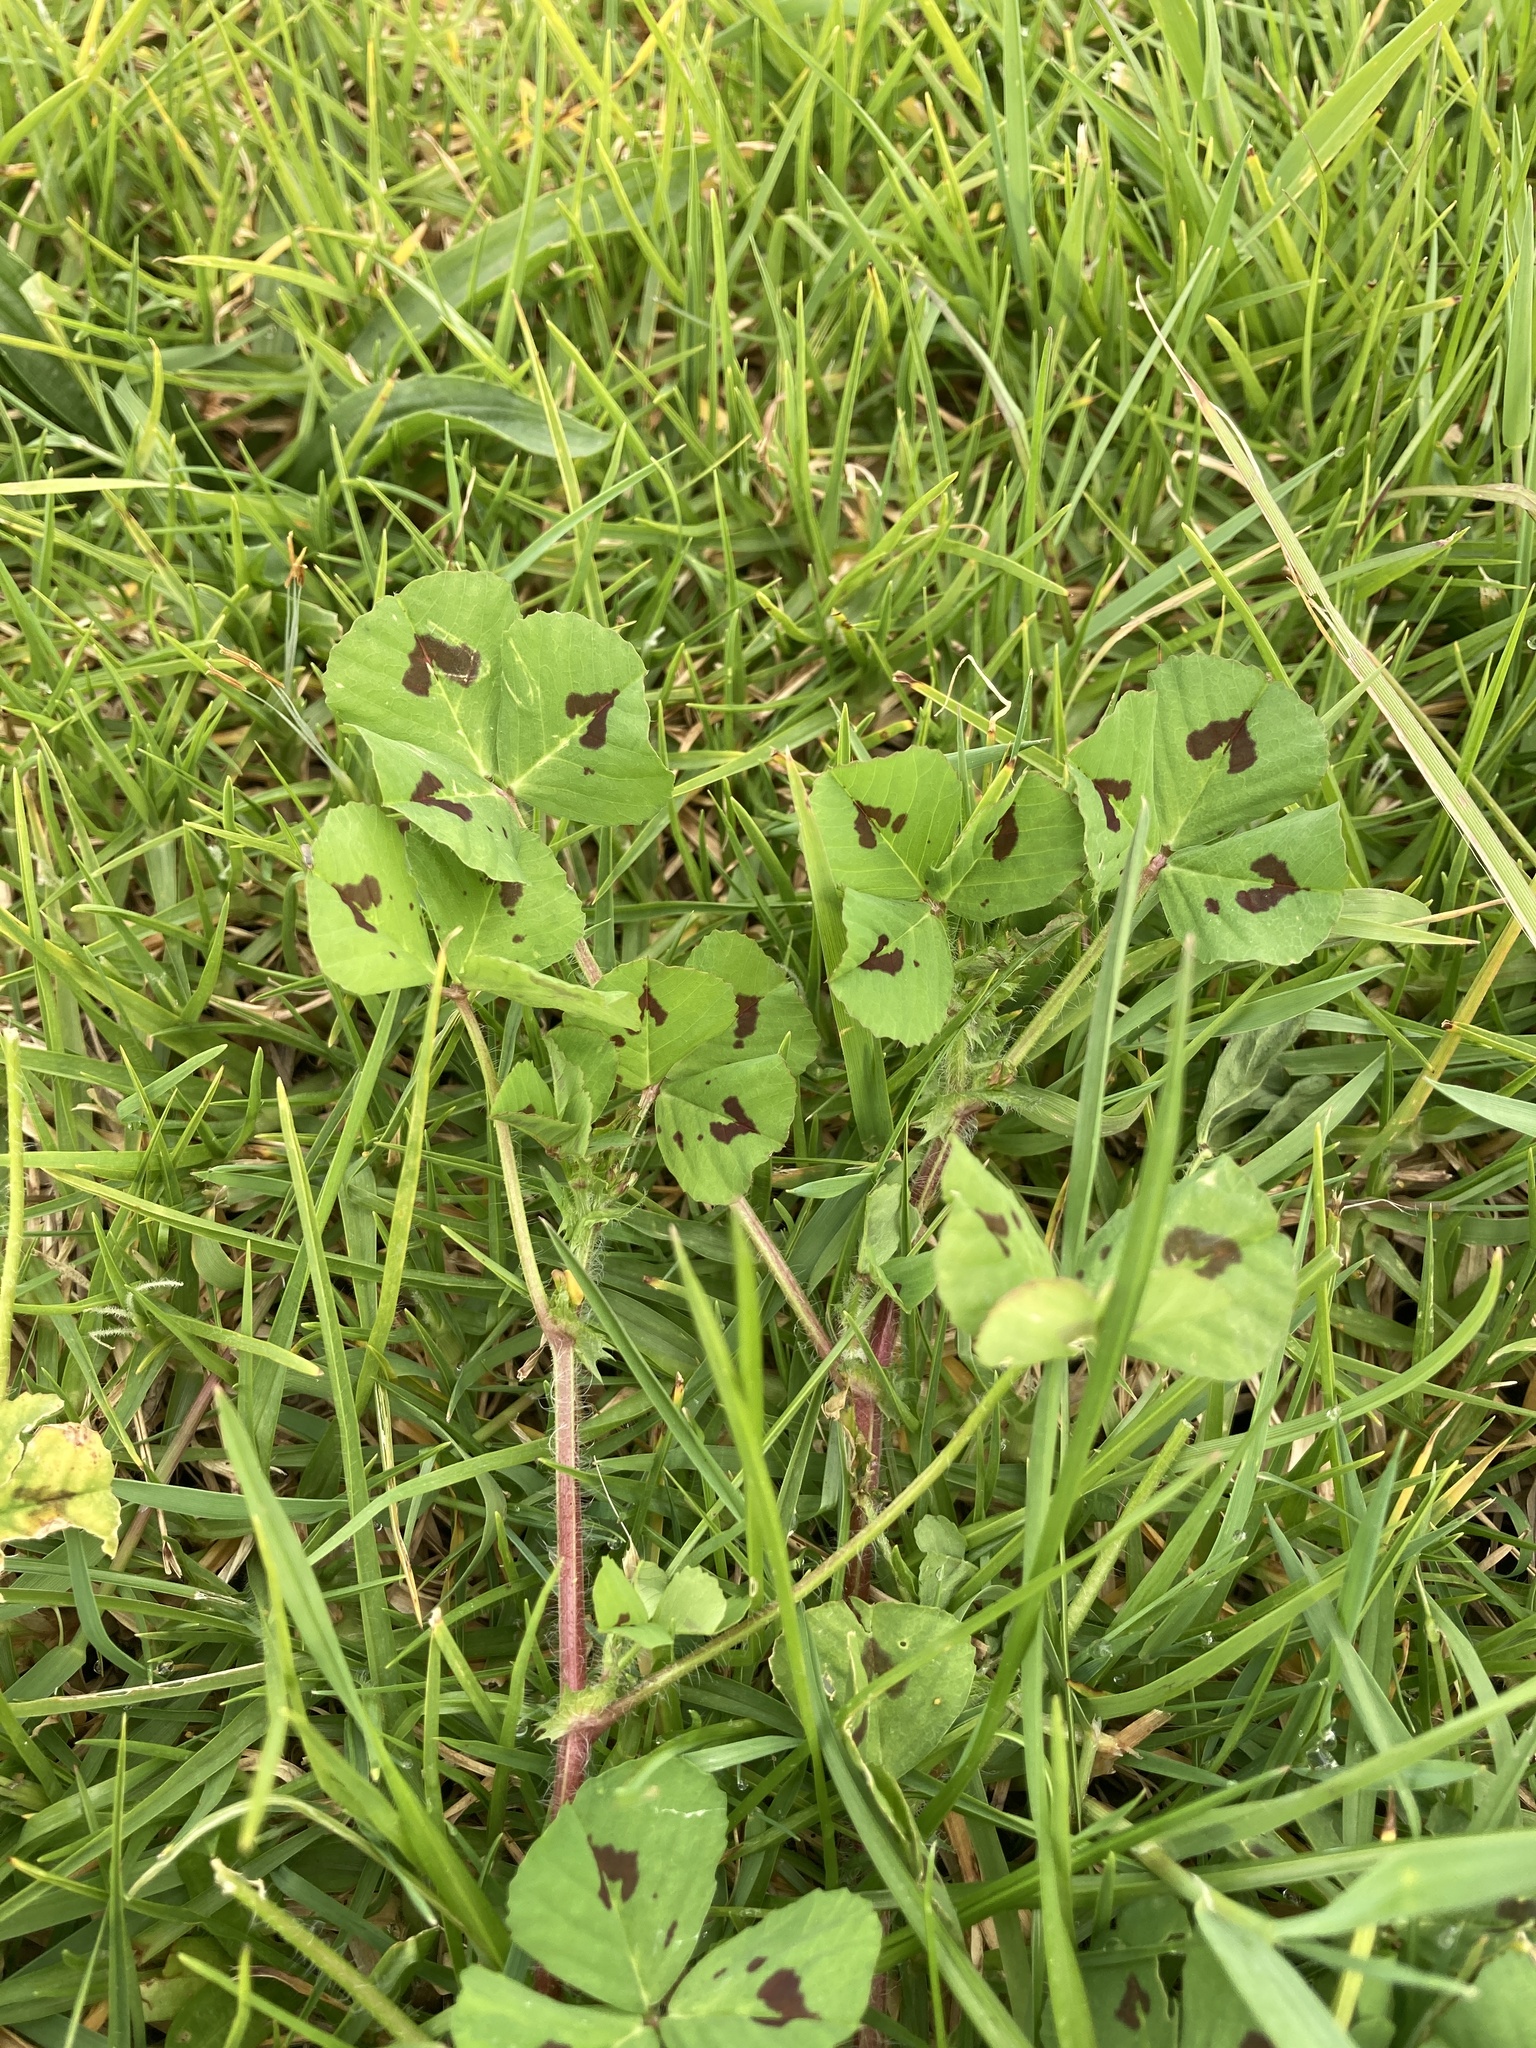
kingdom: Plantae
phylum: Tracheophyta
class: Magnoliopsida
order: Fabales
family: Fabaceae
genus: Medicago
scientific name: Medicago arabica
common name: Spotted medick
